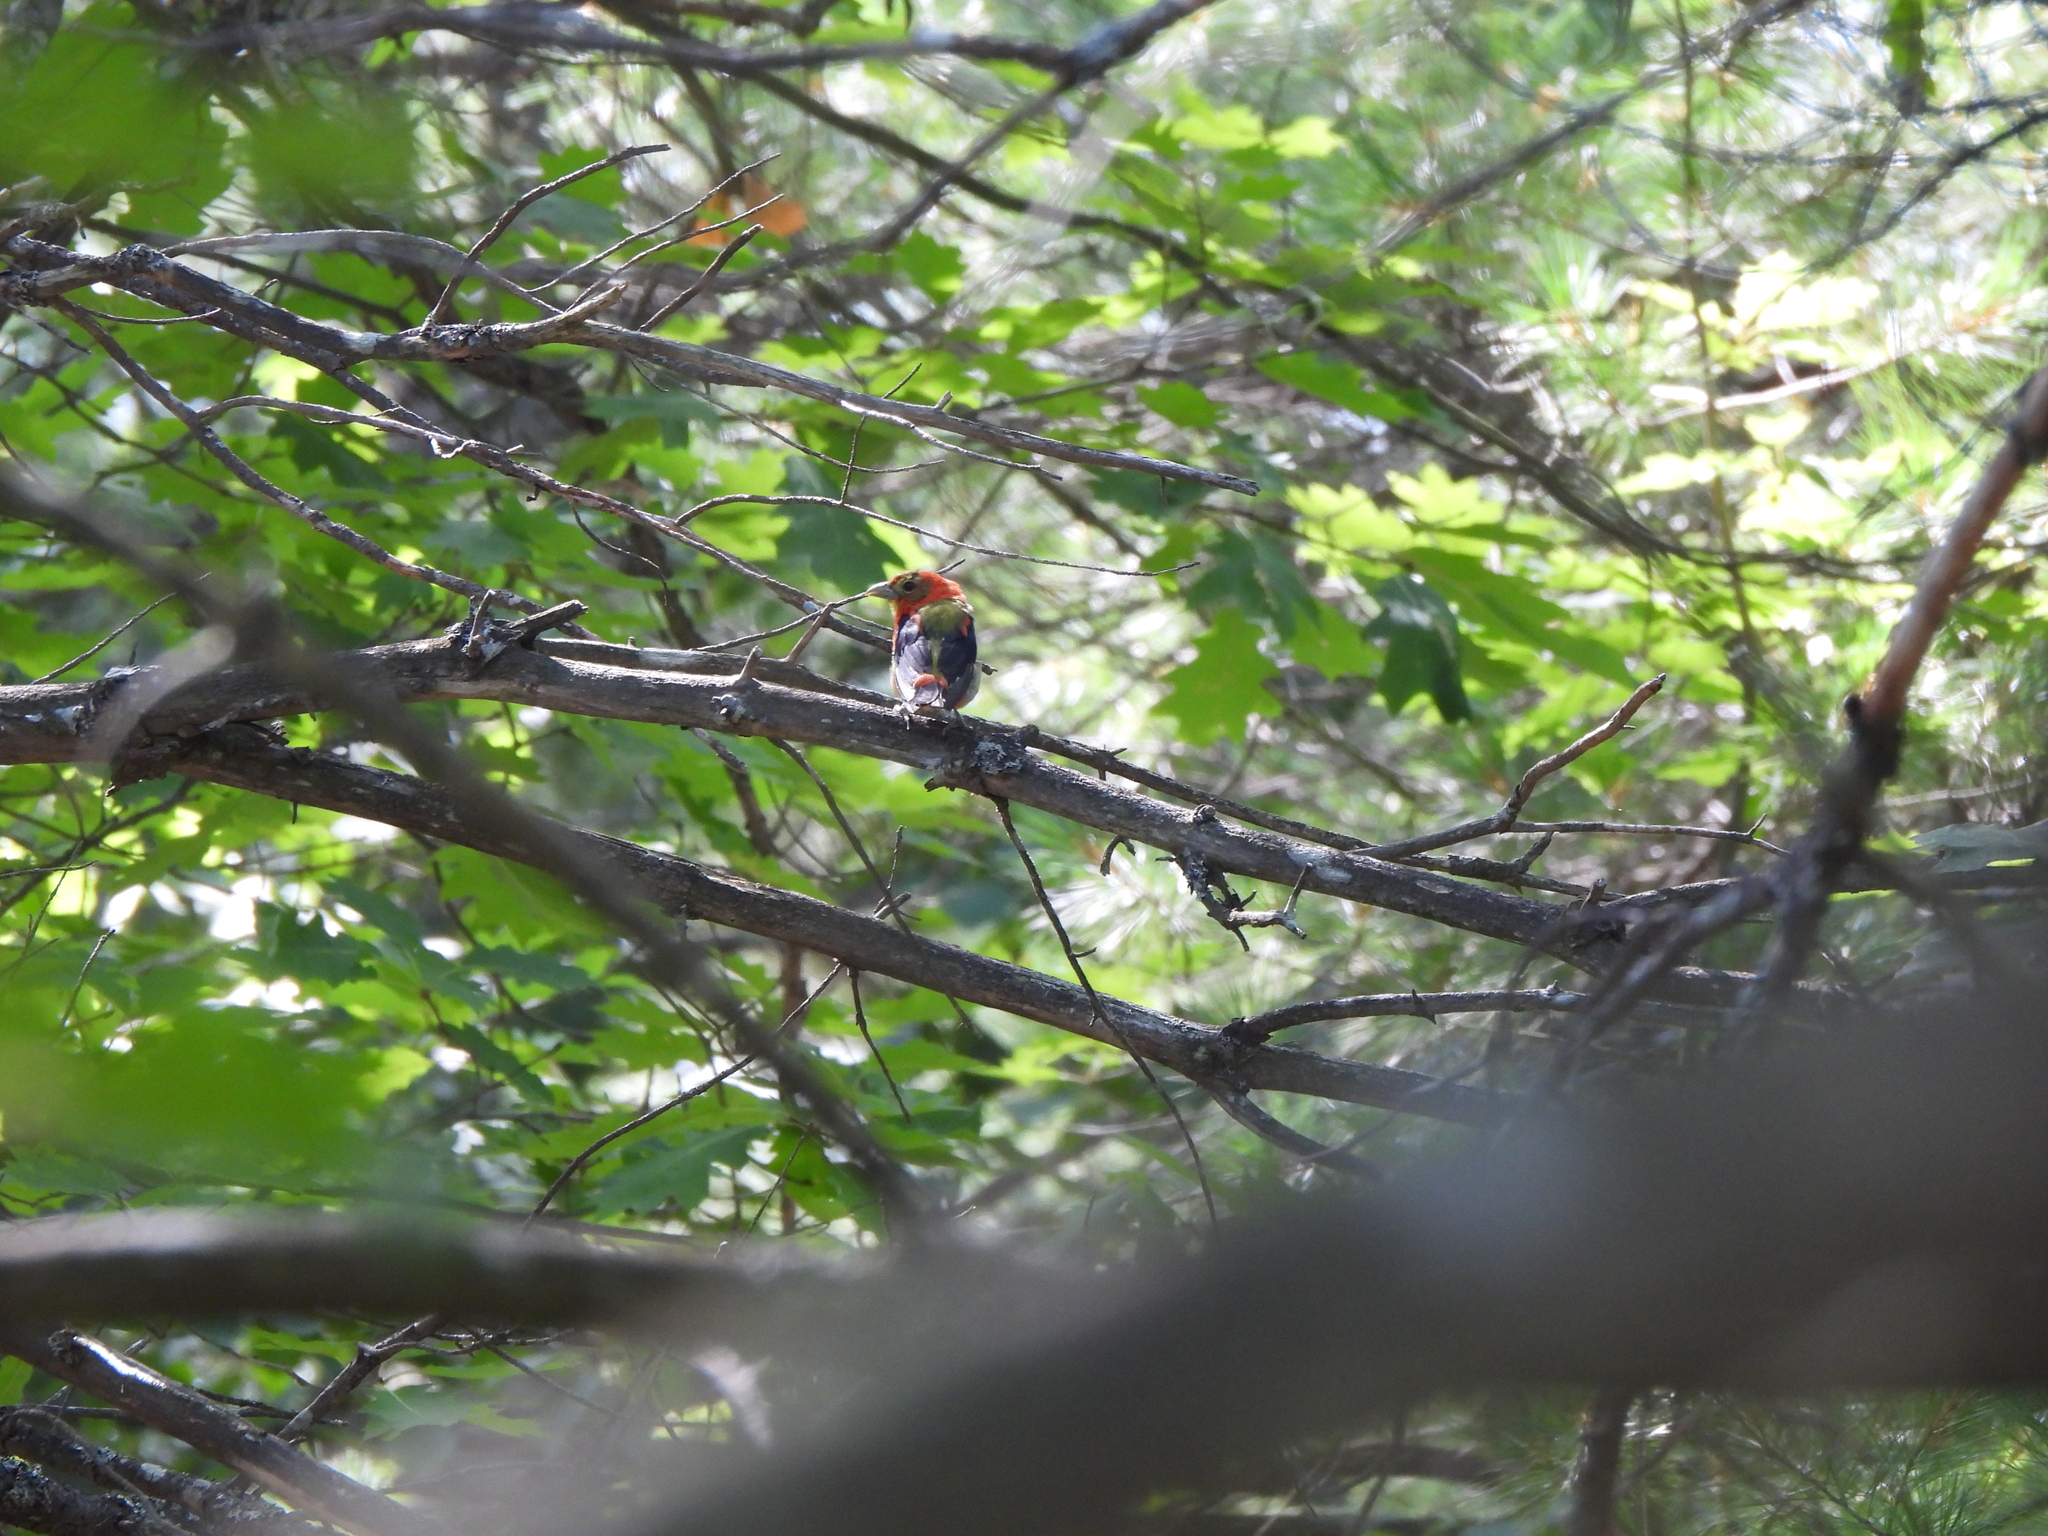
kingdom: Animalia
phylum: Chordata
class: Aves
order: Passeriformes
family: Cardinalidae
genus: Piranga
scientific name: Piranga olivacea
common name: Scarlet tanager
